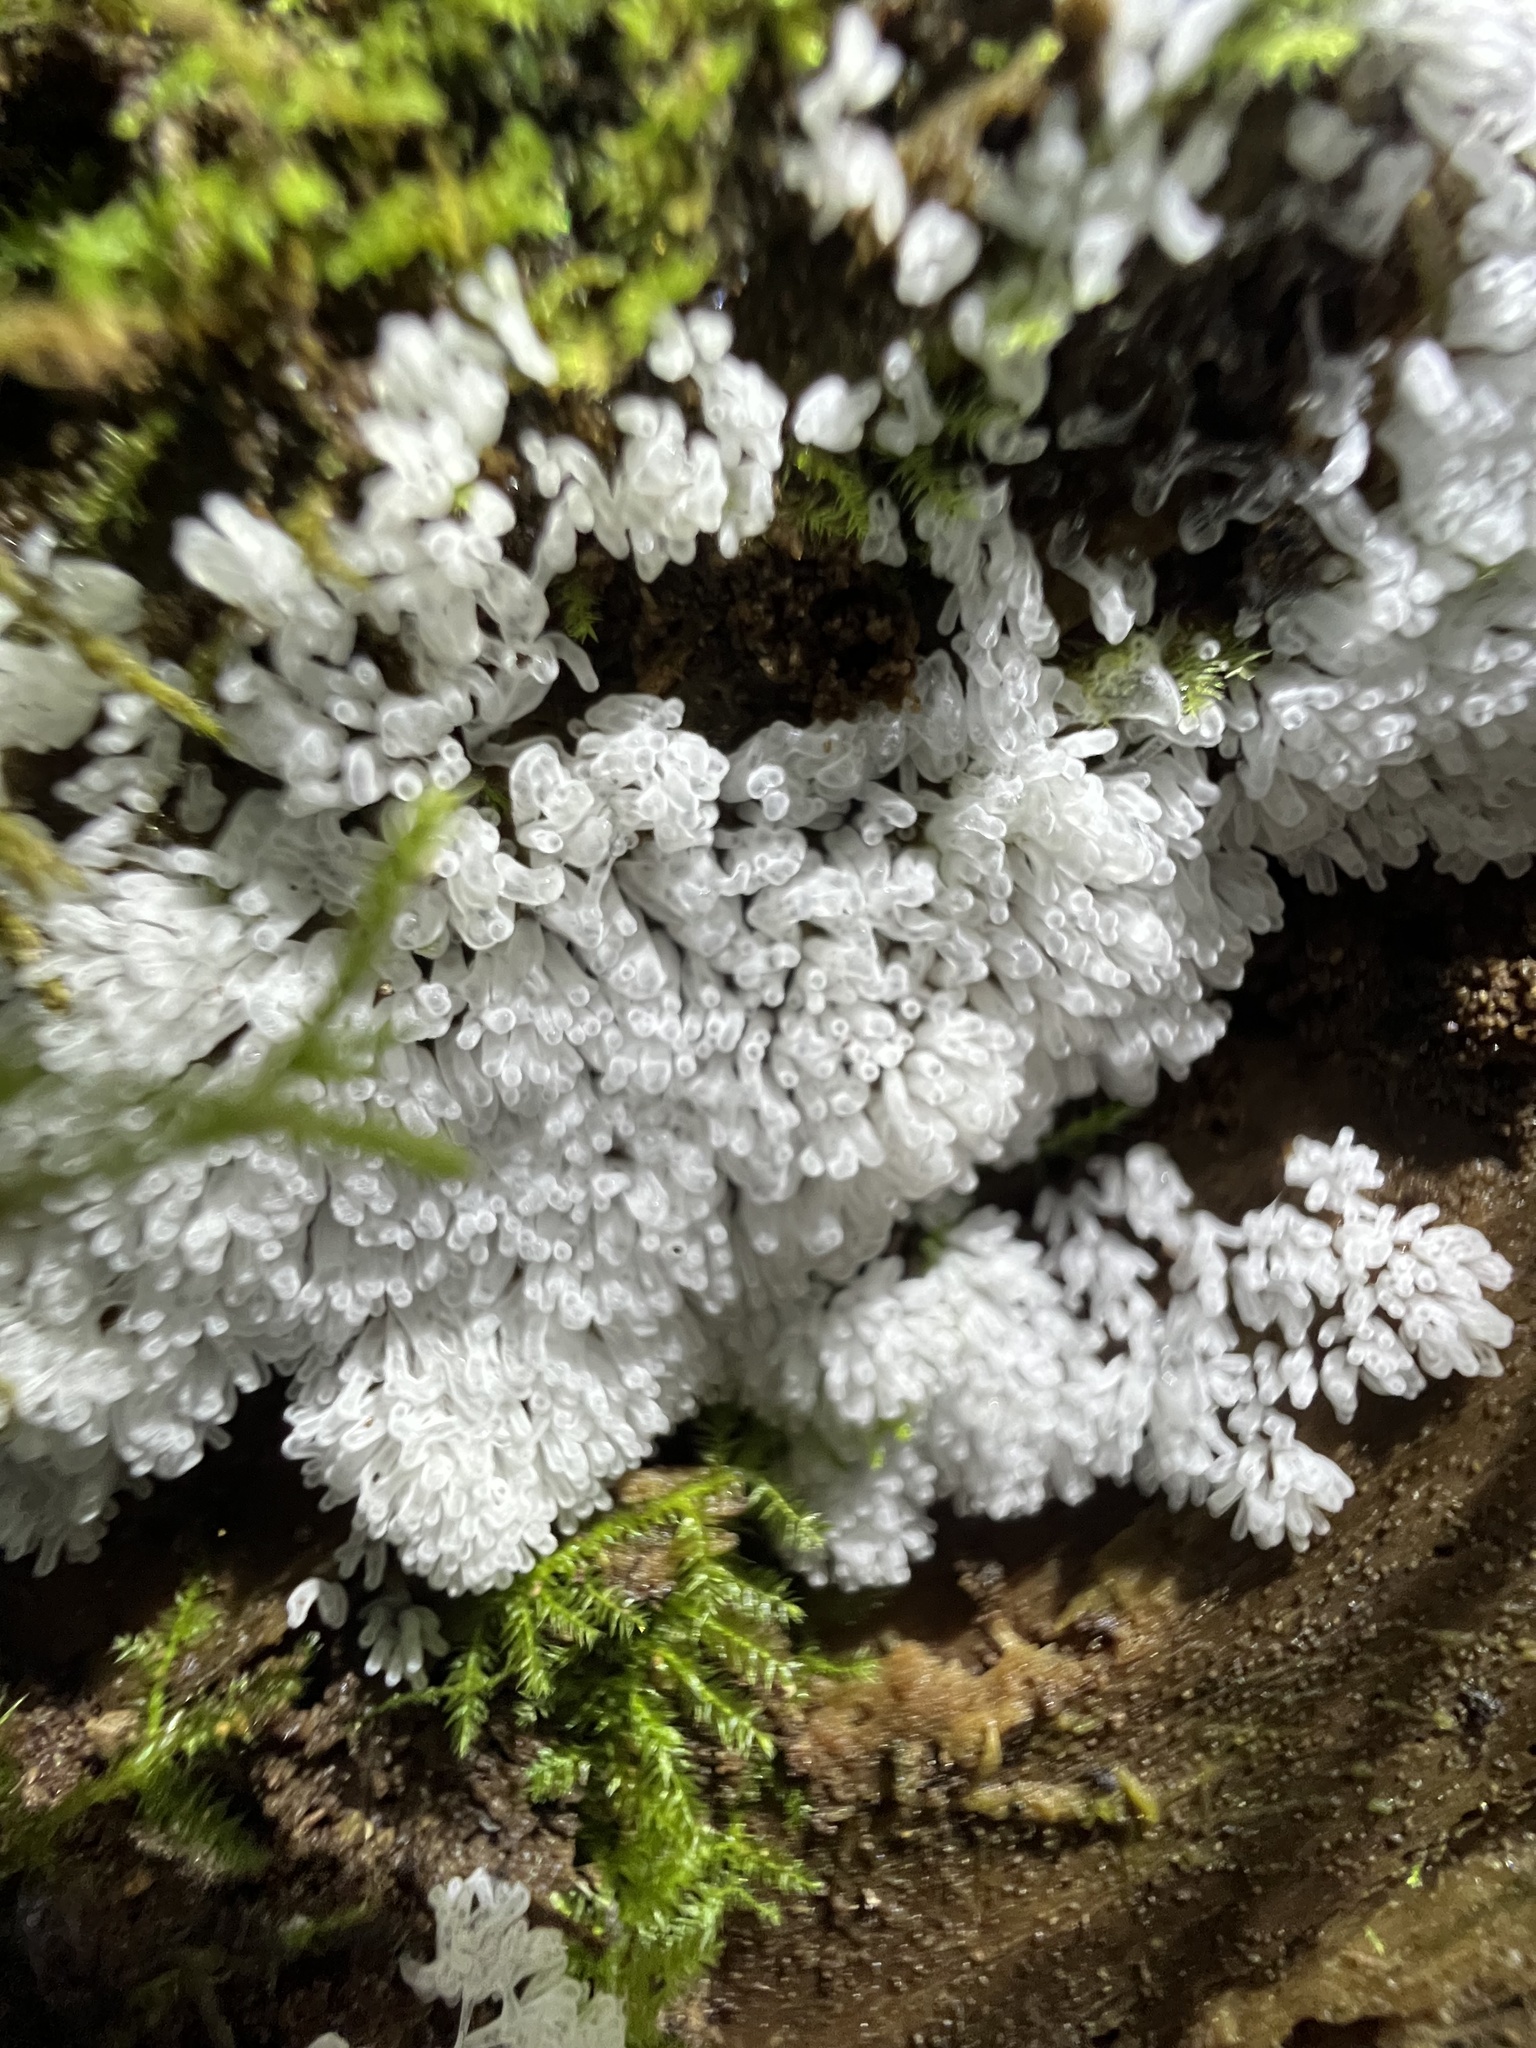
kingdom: Protozoa
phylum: Mycetozoa
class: Protosteliomycetes
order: Ceratiomyxales
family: Ceratiomyxaceae
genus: Ceratiomyxa
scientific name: Ceratiomyxa fruticulosa
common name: Honeycomb coral slime mold
